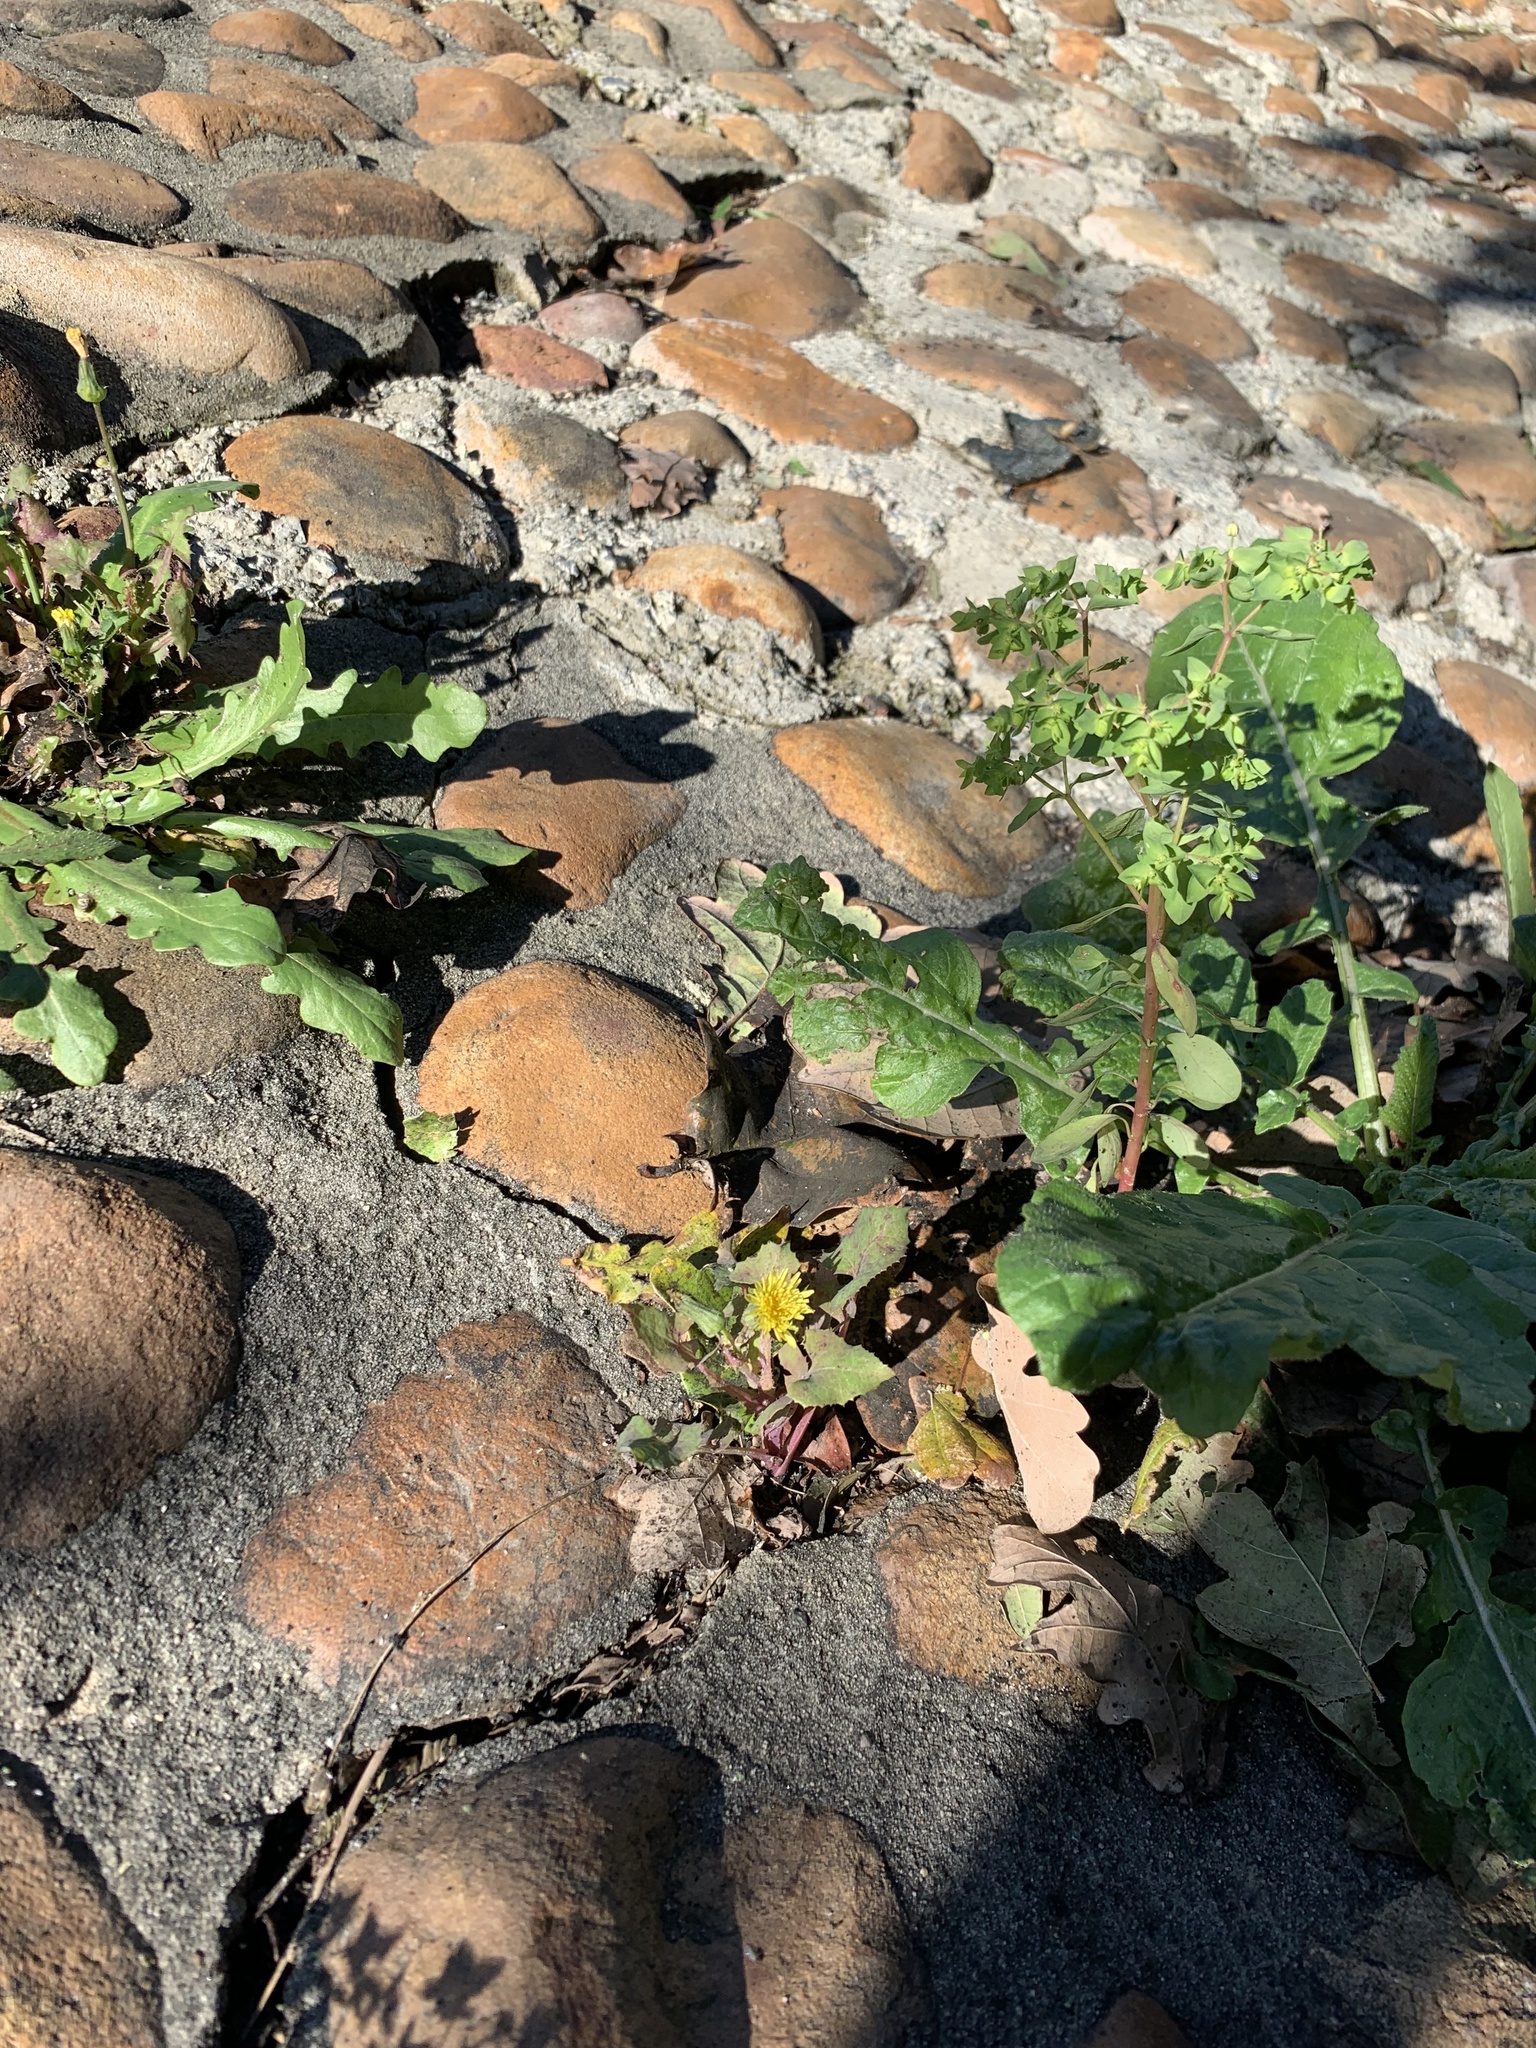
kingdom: Plantae
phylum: Tracheophyta
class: Magnoliopsida
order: Asterales
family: Asteraceae
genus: Sonchus
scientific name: Sonchus oleraceus
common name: Common sowthistle
